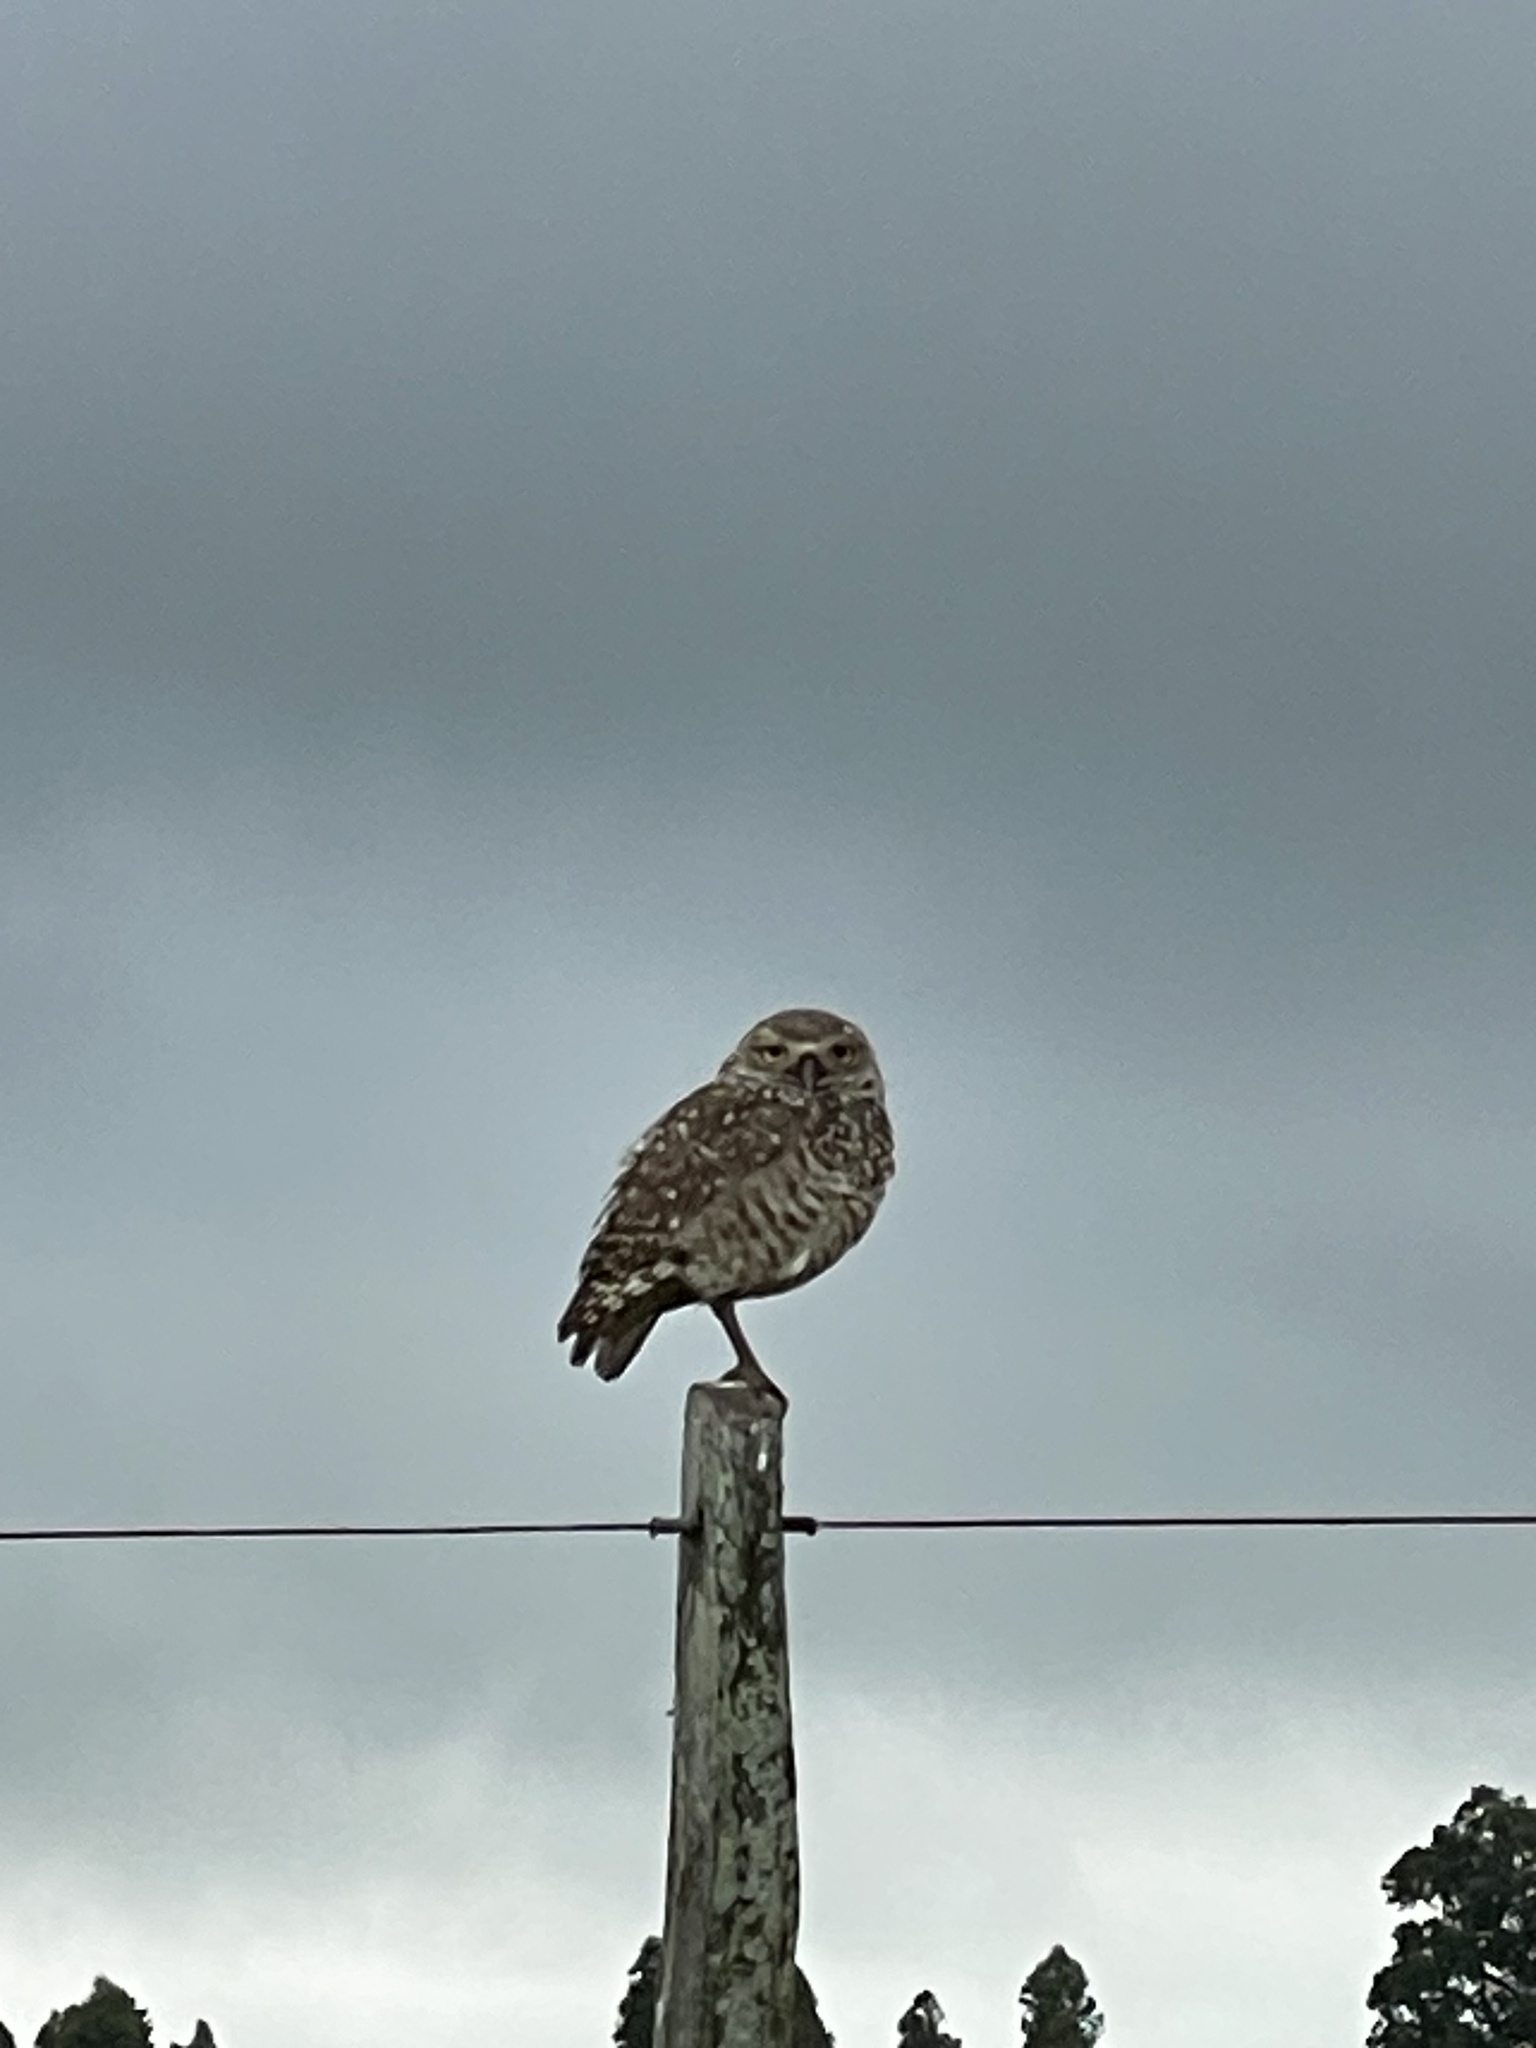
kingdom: Animalia
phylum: Chordata
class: Aves
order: Strigiformes
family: Strigidae
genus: Athene
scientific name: Athene cunicularia
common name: Burrowing owl
